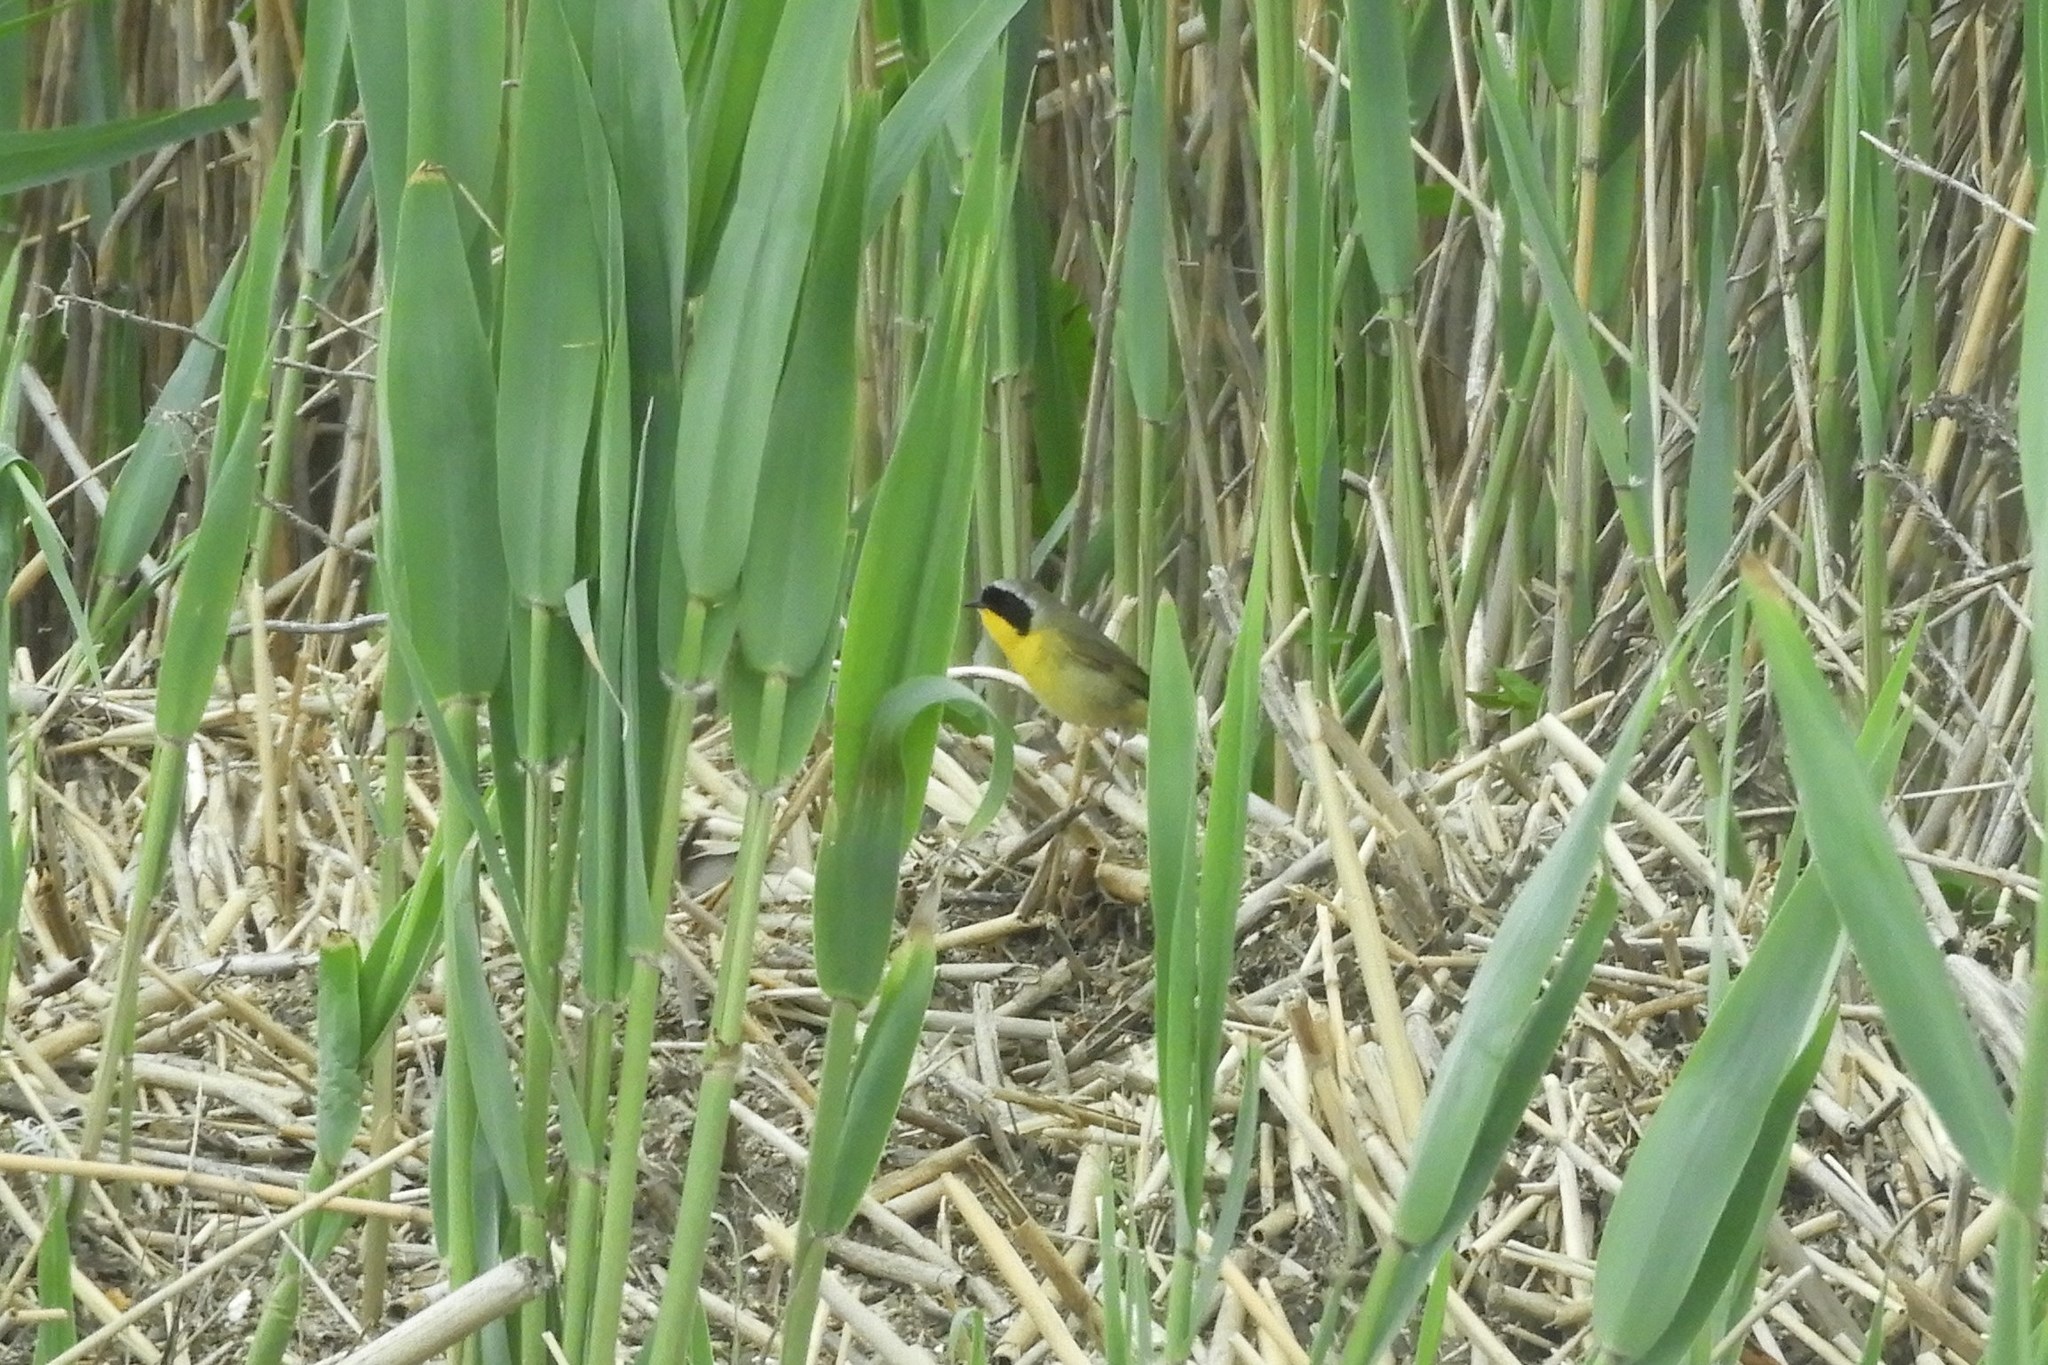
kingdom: Animalia
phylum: Chordata
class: Aves
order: Passeriformes
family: Parulidae
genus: Geothlypis
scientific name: Geothlypis trichas
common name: Common yellowthroat
